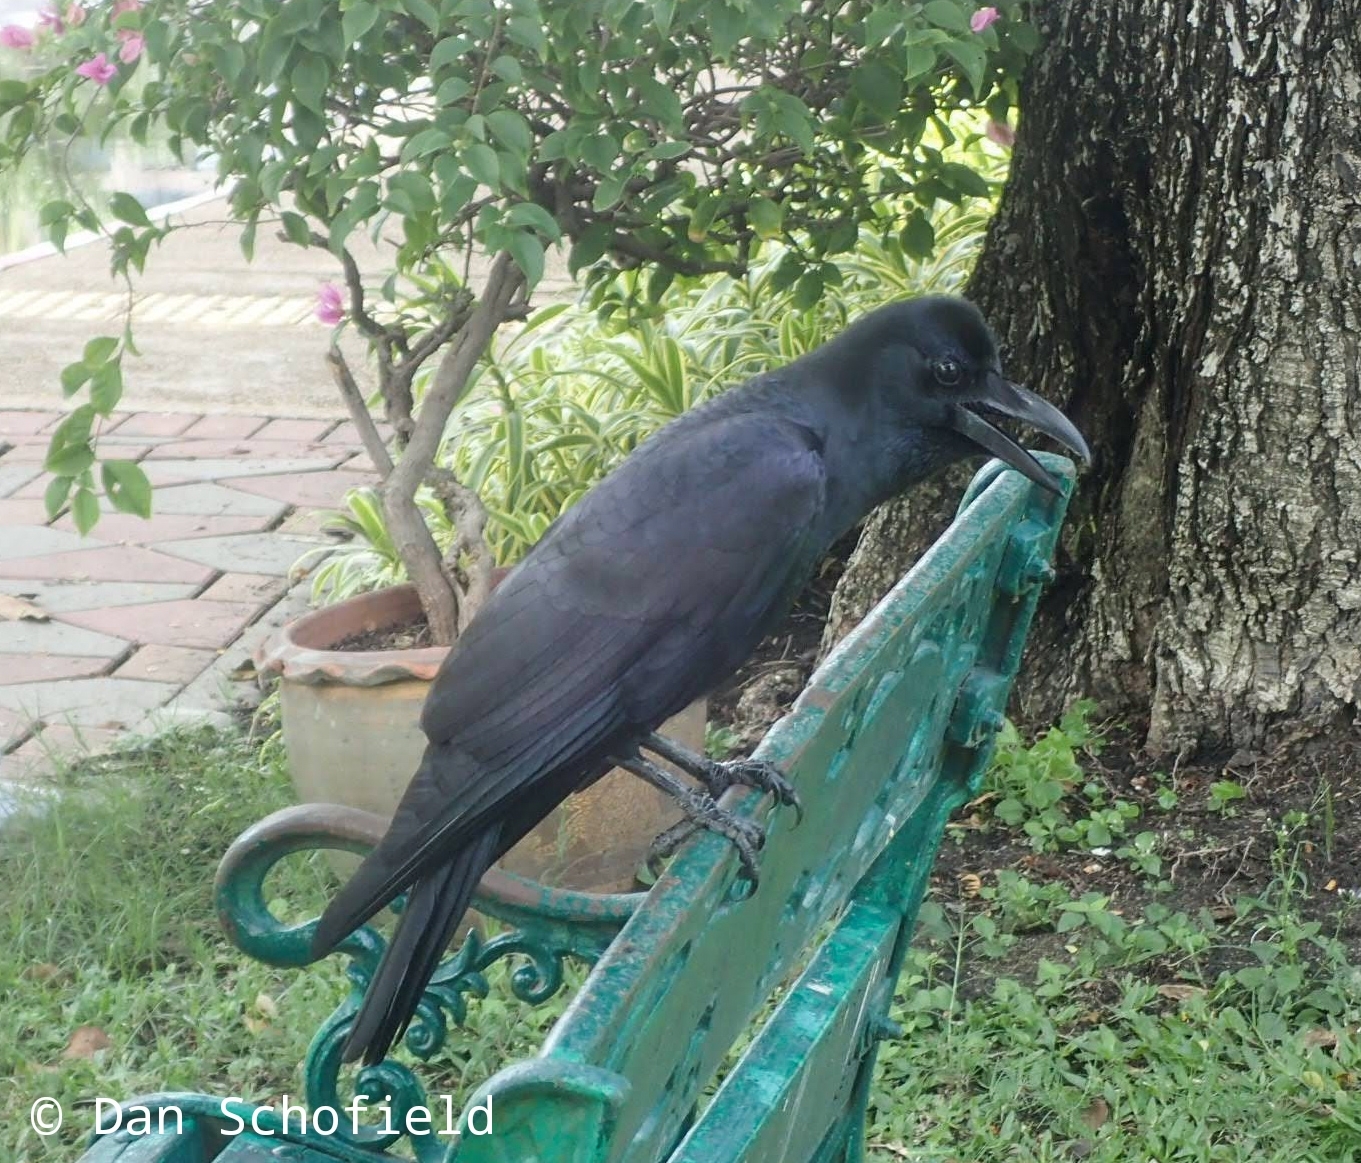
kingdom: Animalia
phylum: Chordata
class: Aves
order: Passeriformes
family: Corvidae
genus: Corvus
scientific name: Corvus macrorhynchos
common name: Large-billed crow
